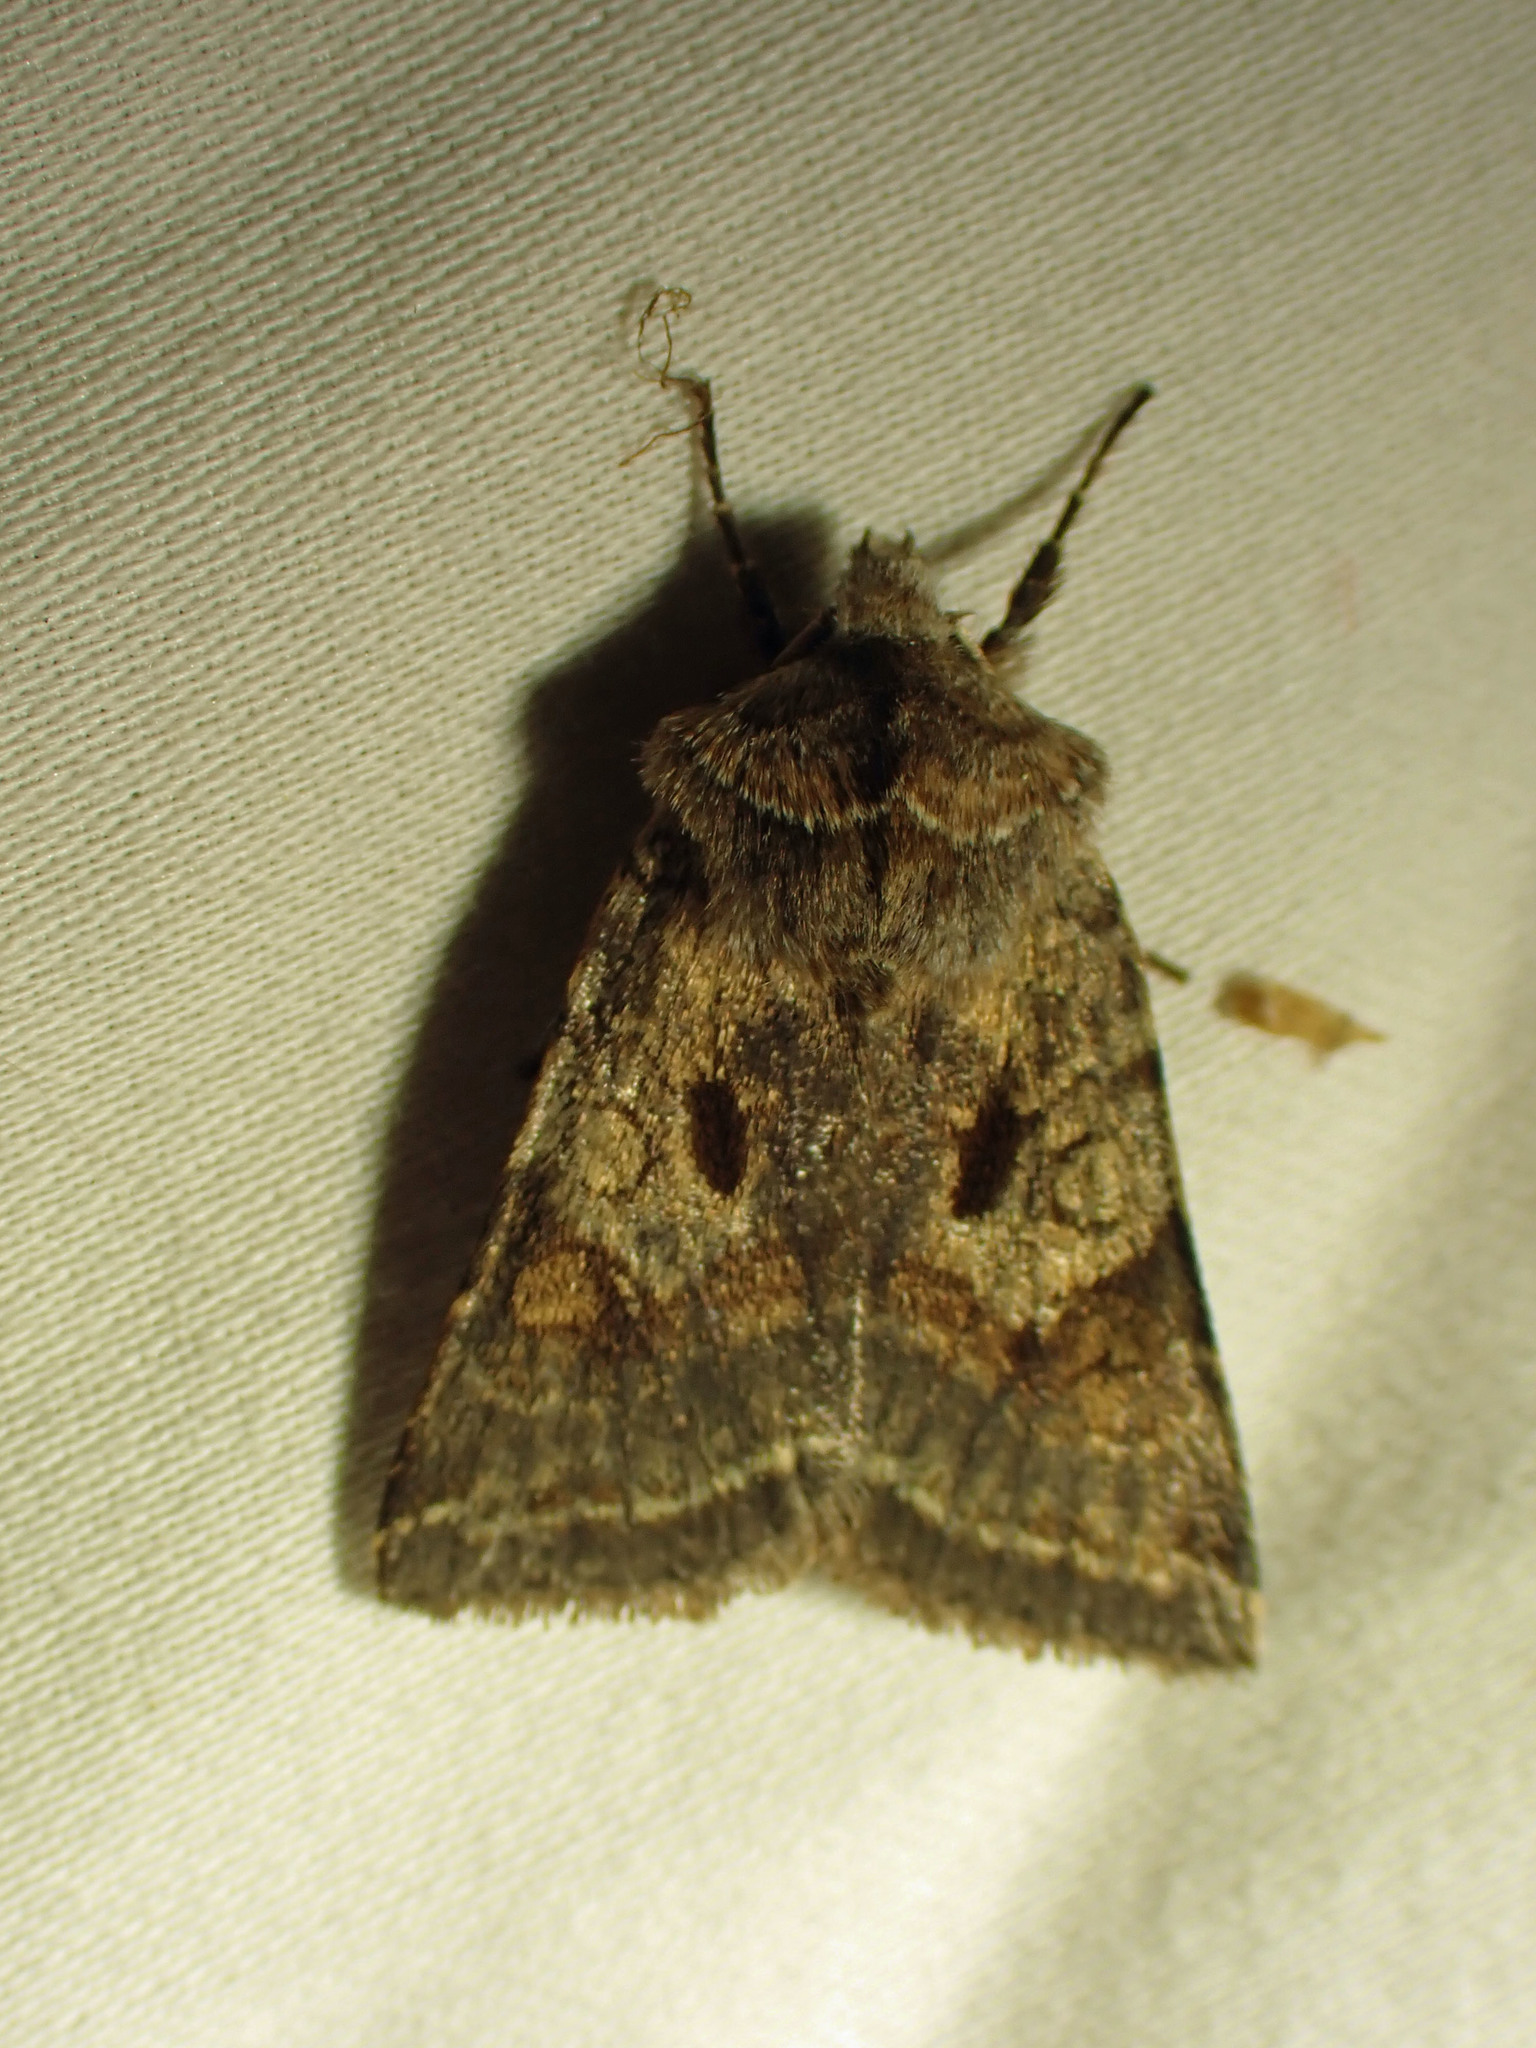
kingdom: Animalia
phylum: Arthropoda
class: Insecta
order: Lepidoptera
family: Noctuidae
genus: Cerastis
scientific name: Cerastis salicarum
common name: Willow dart
